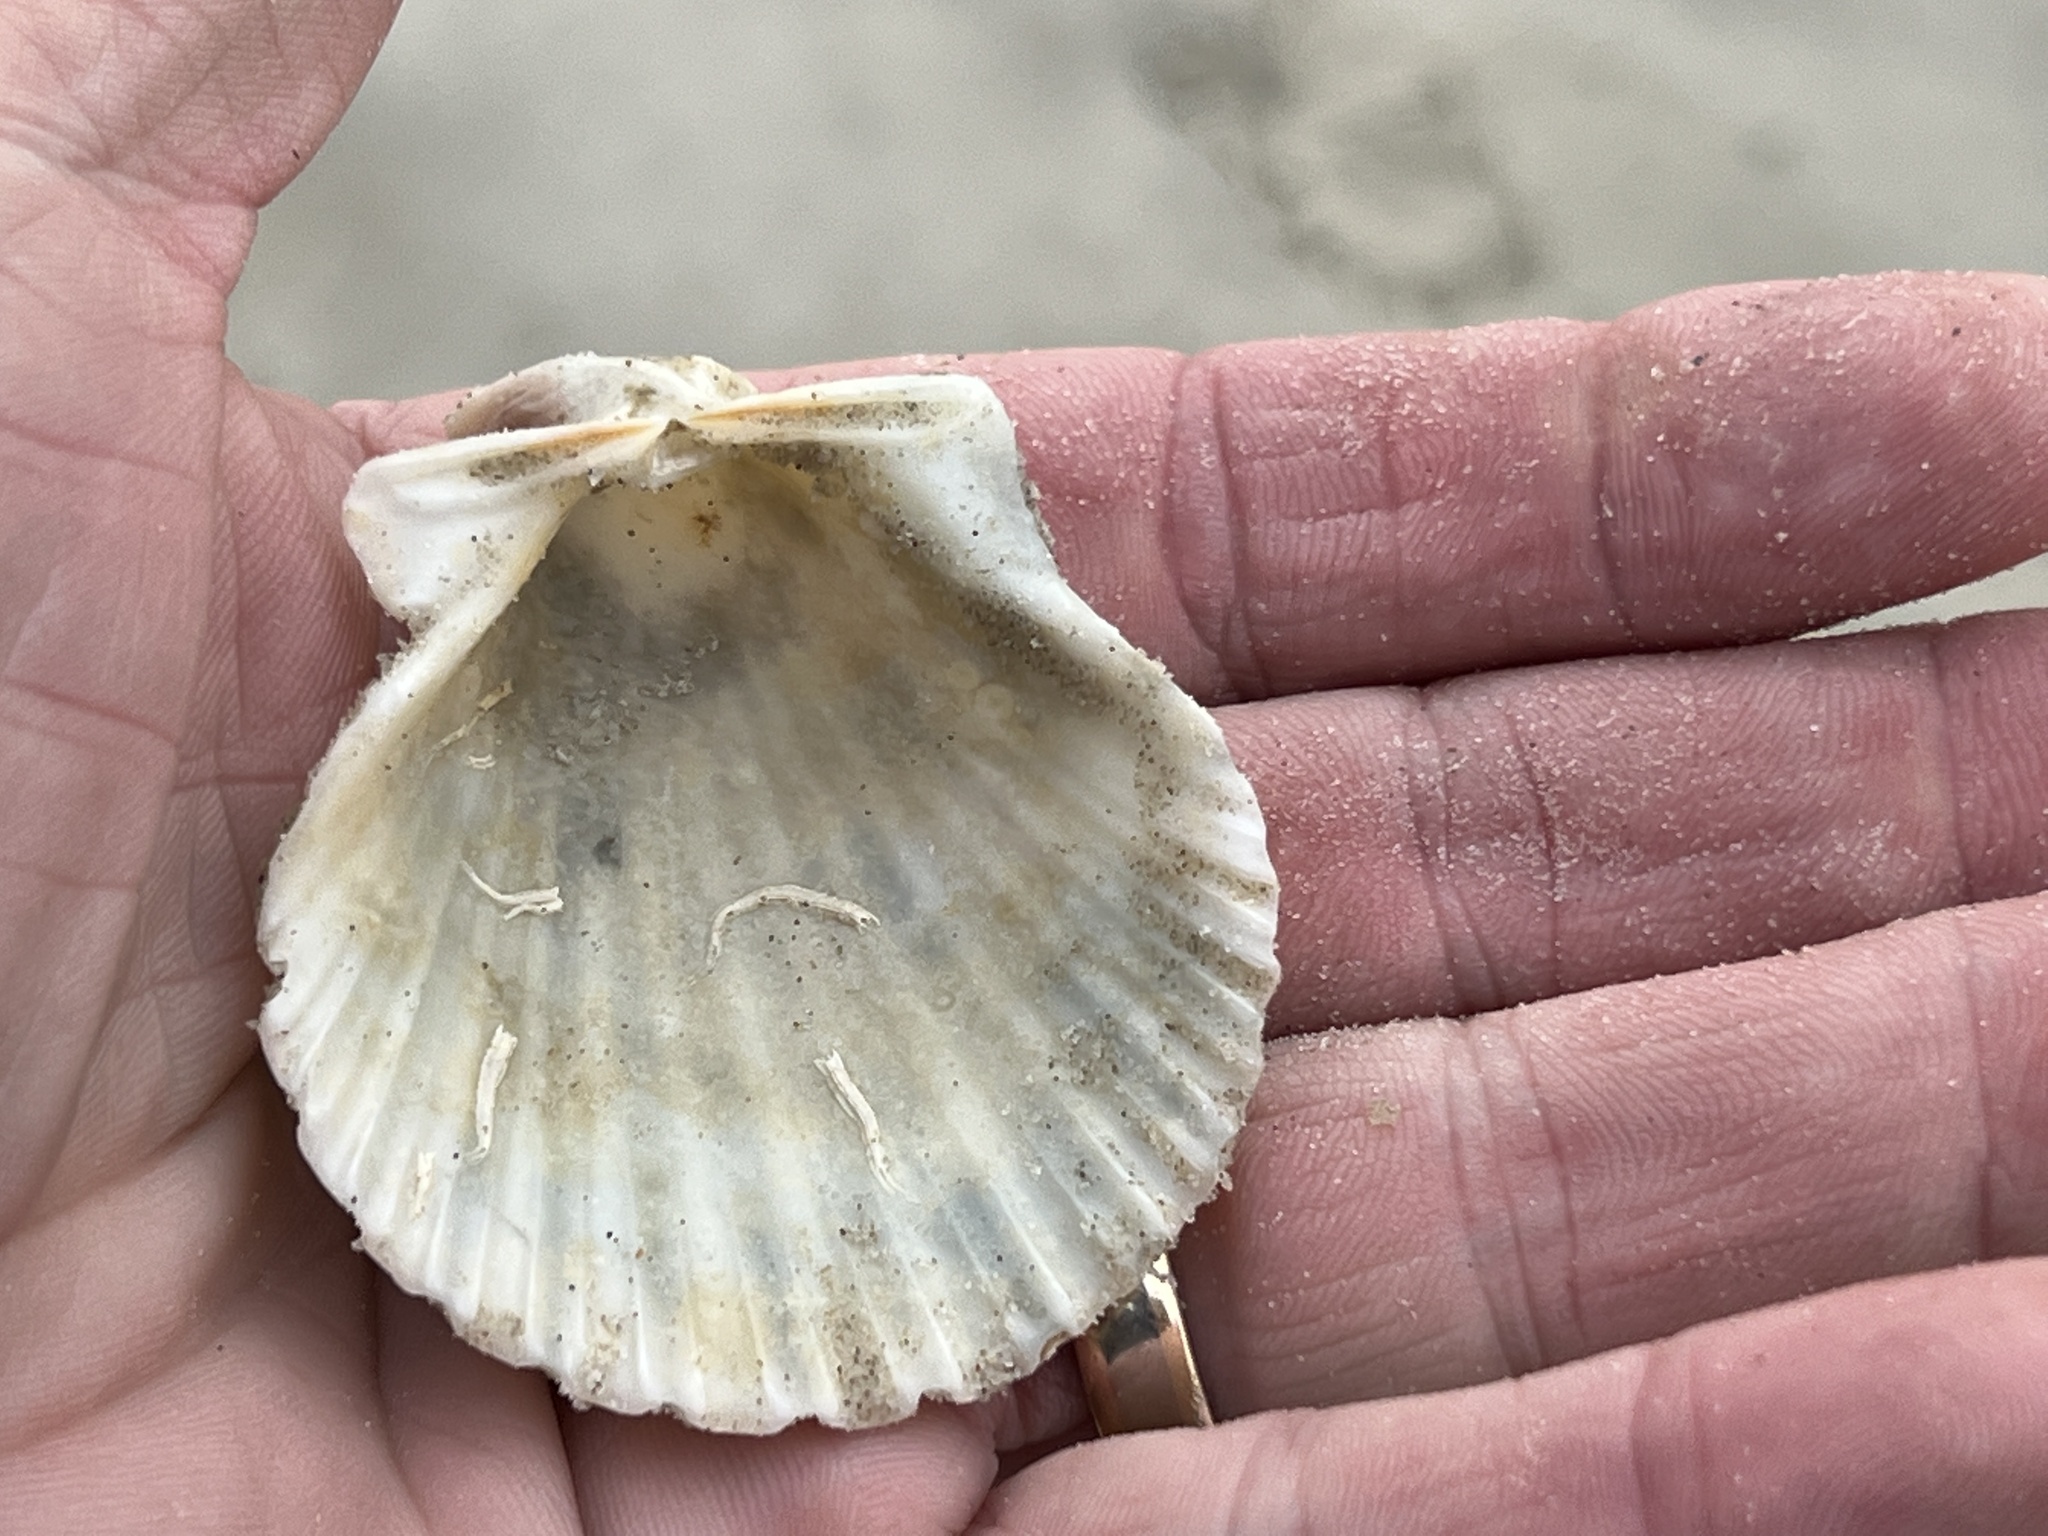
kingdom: Animalia
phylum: Mollusca
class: Bivalvia
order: Pectinida
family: Pectinidae
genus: Argopecten
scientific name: Argopecten irradians
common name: Atlantic bay scallop
